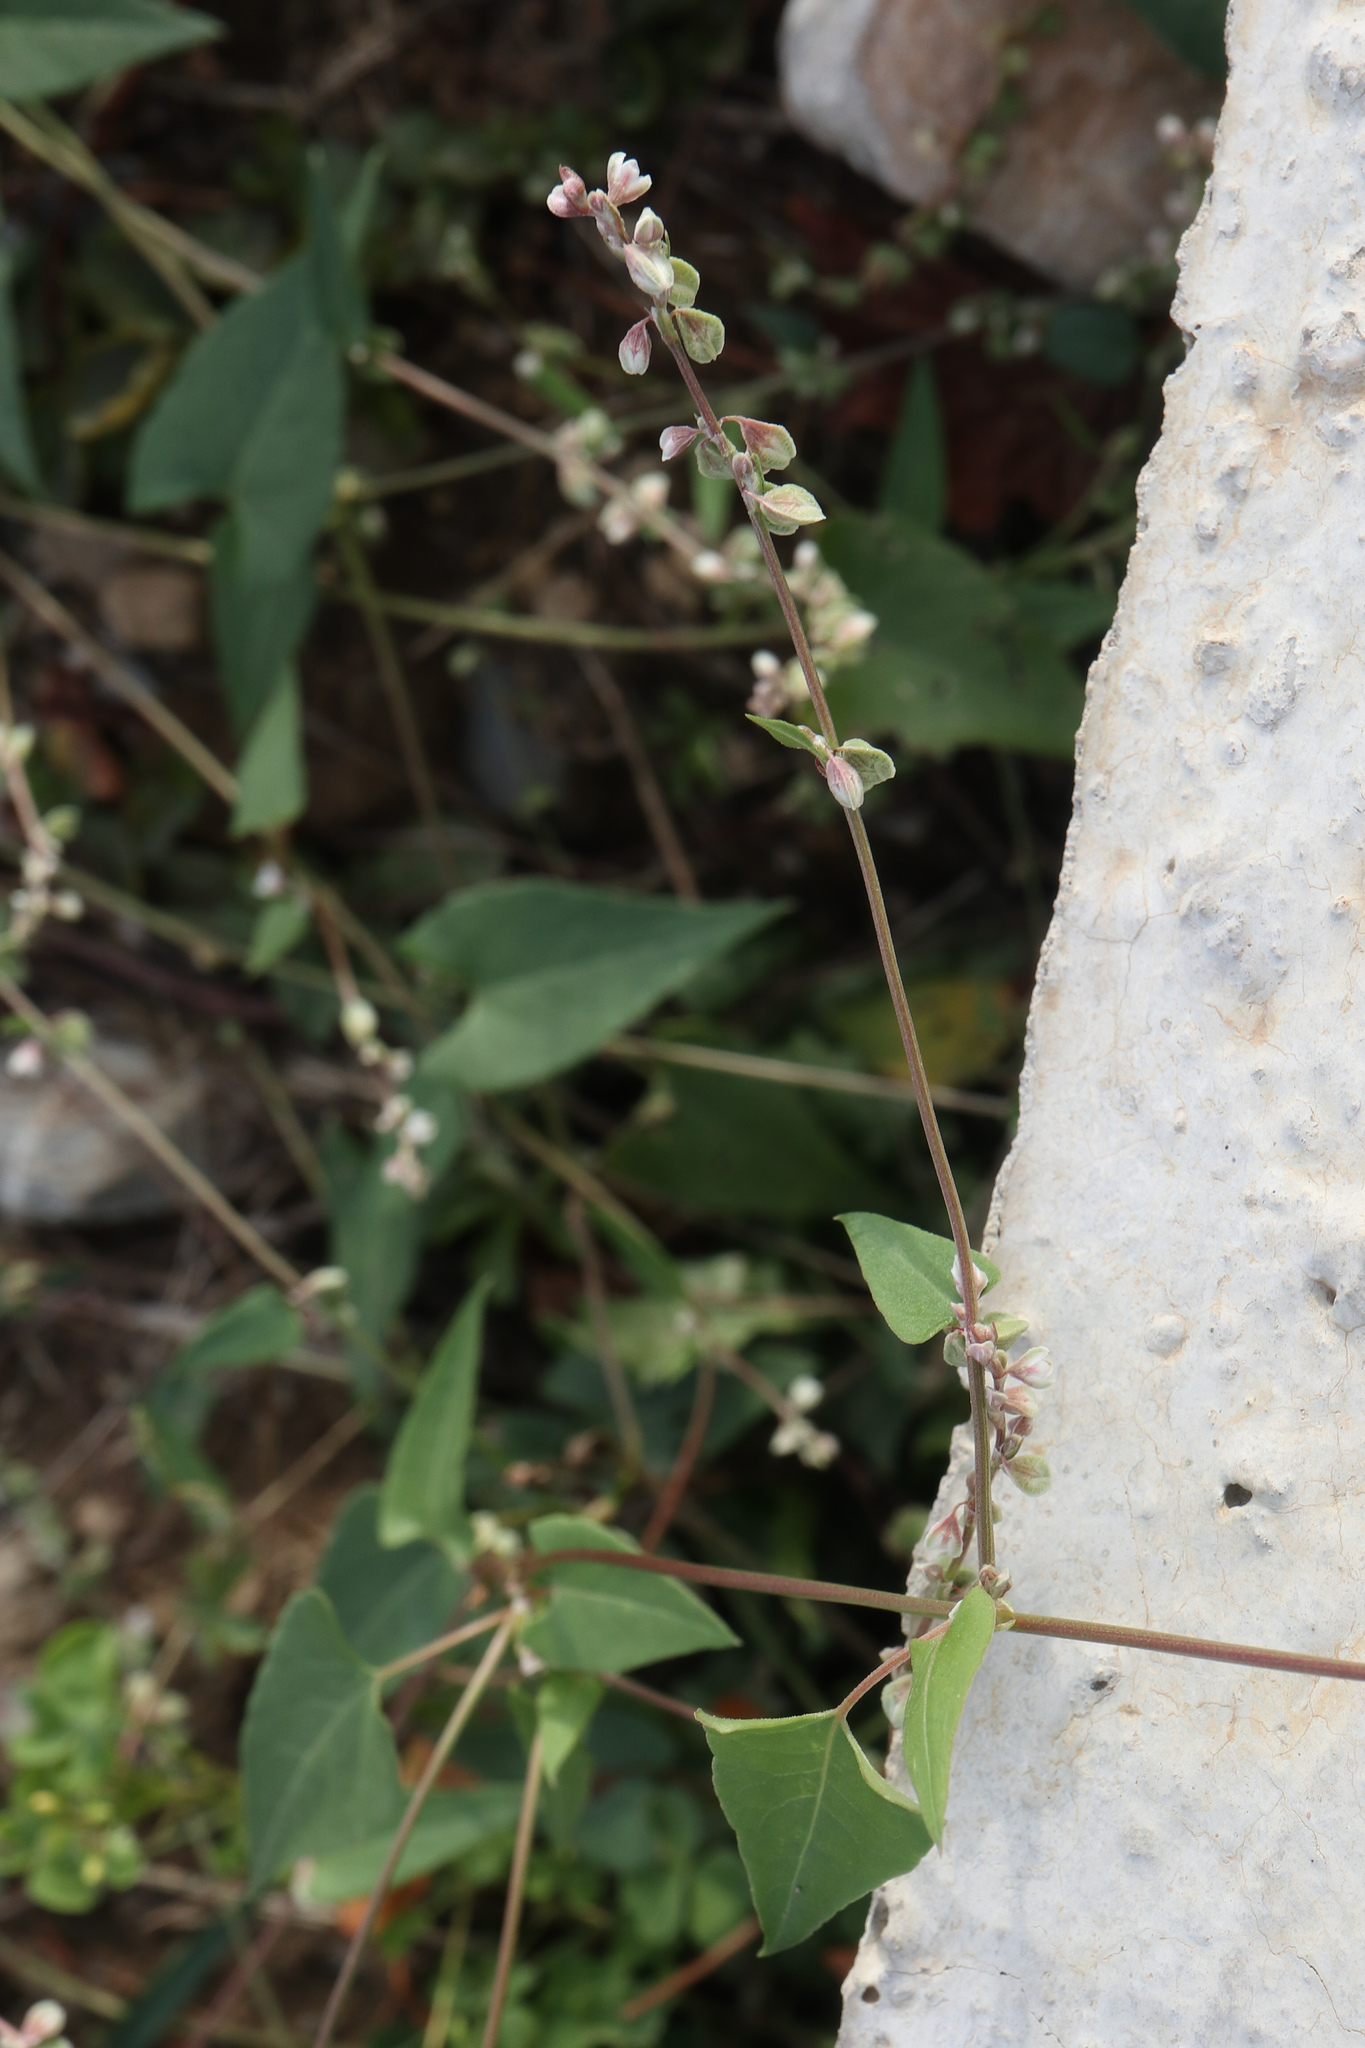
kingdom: Plantae
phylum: Tracheophyta
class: Magnoliopsida
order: Caryophyllales
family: Polygonaceae
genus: Fallopia
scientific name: Fallopia convolvulus
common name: Black bindweed
